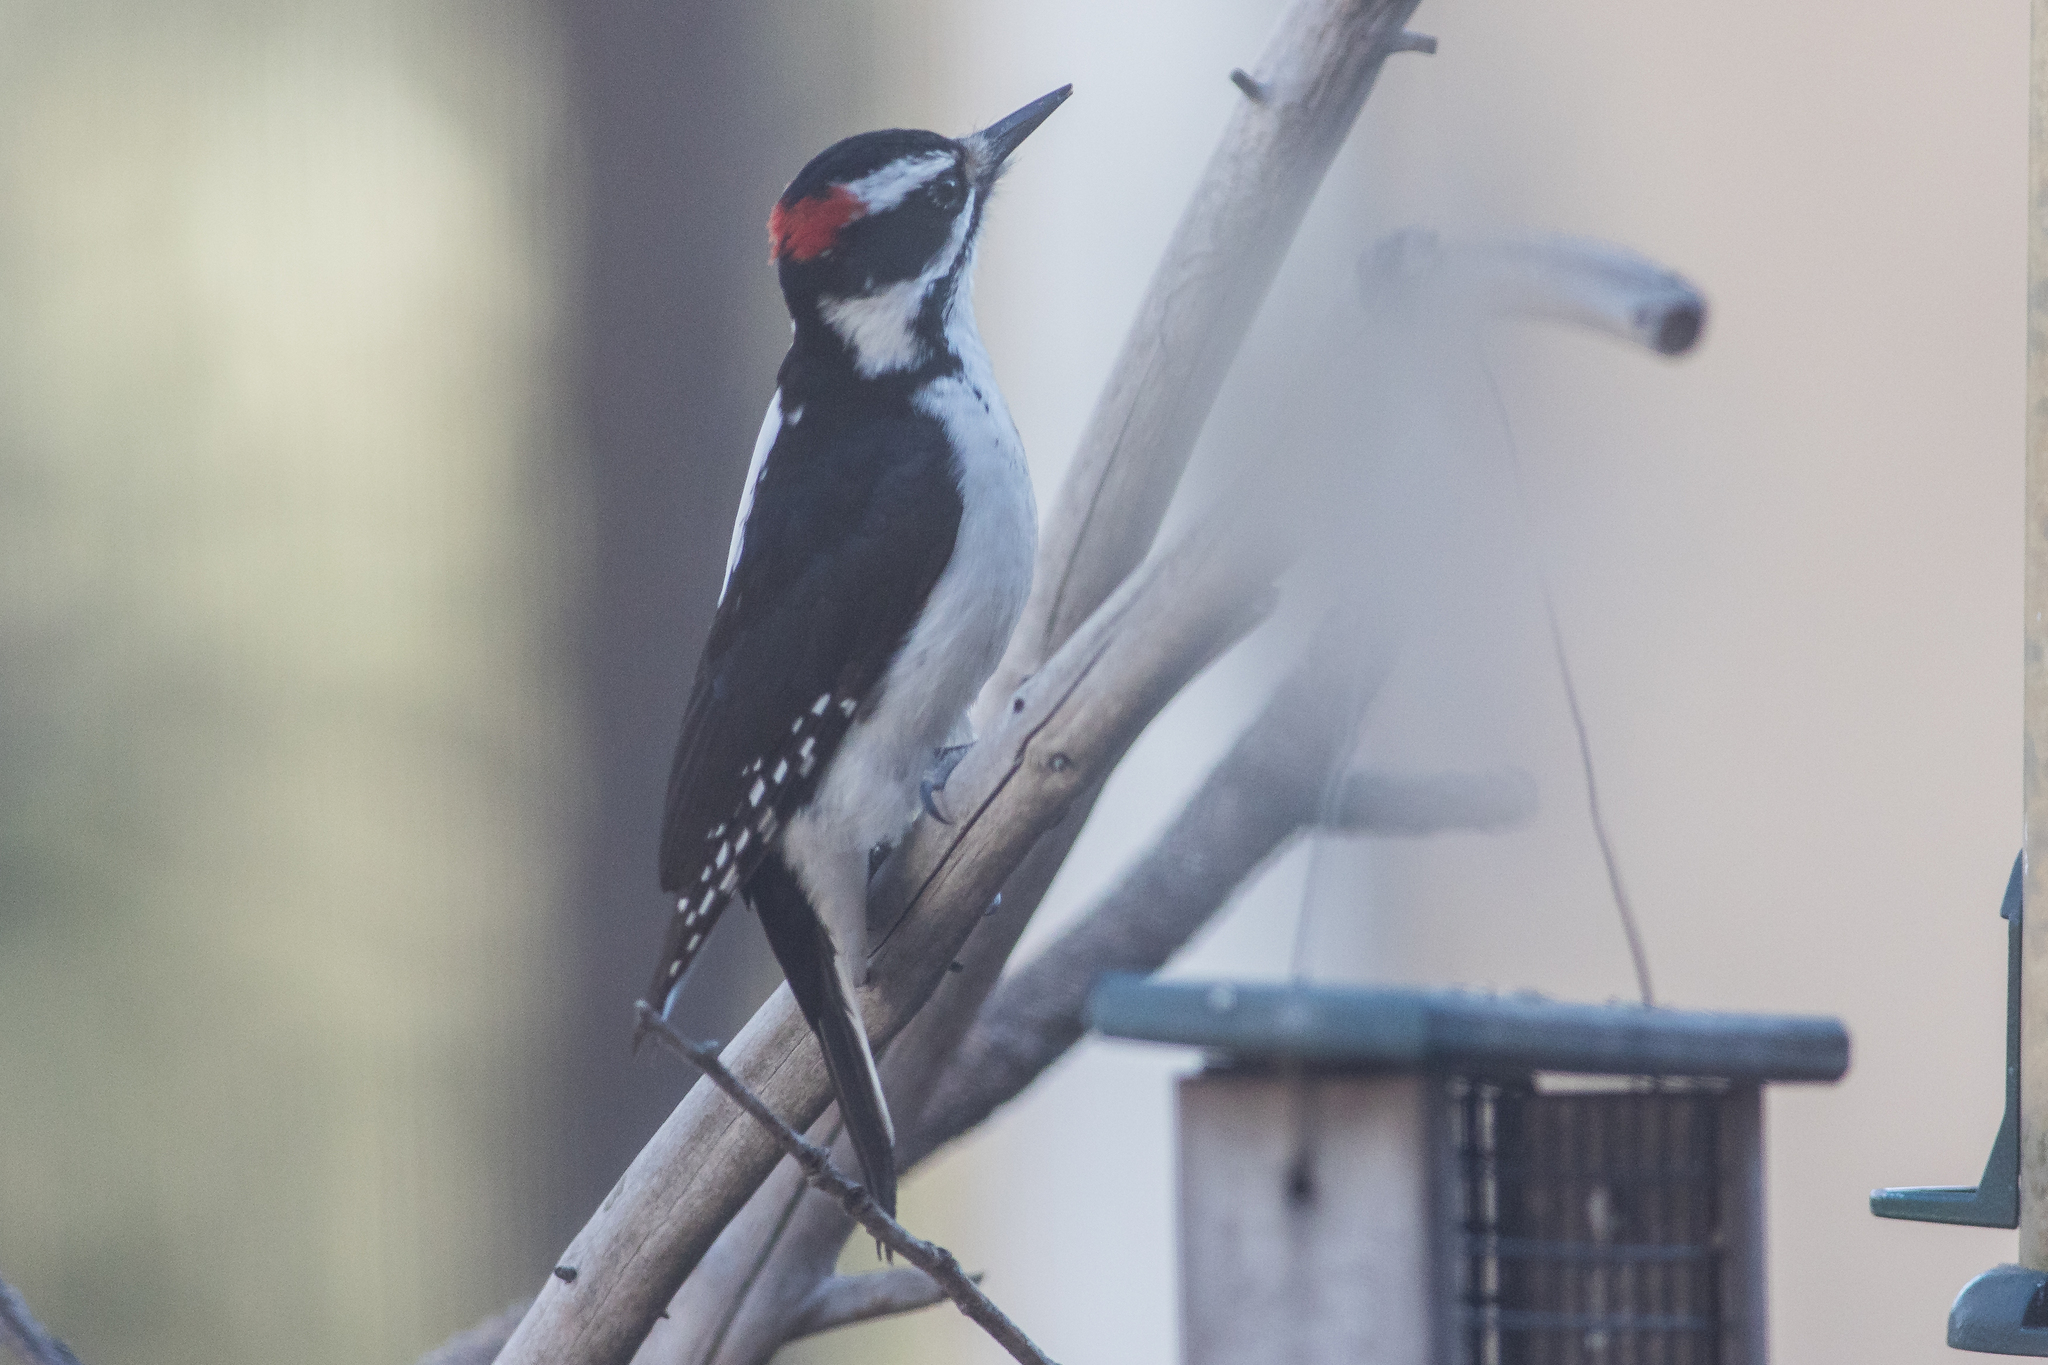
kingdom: Animalia
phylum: Chordata
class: Aves
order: Piciformes
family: Picidae
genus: Leuconotopicus
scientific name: Leuconotopicus villosus
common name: Hairy woodpecker
